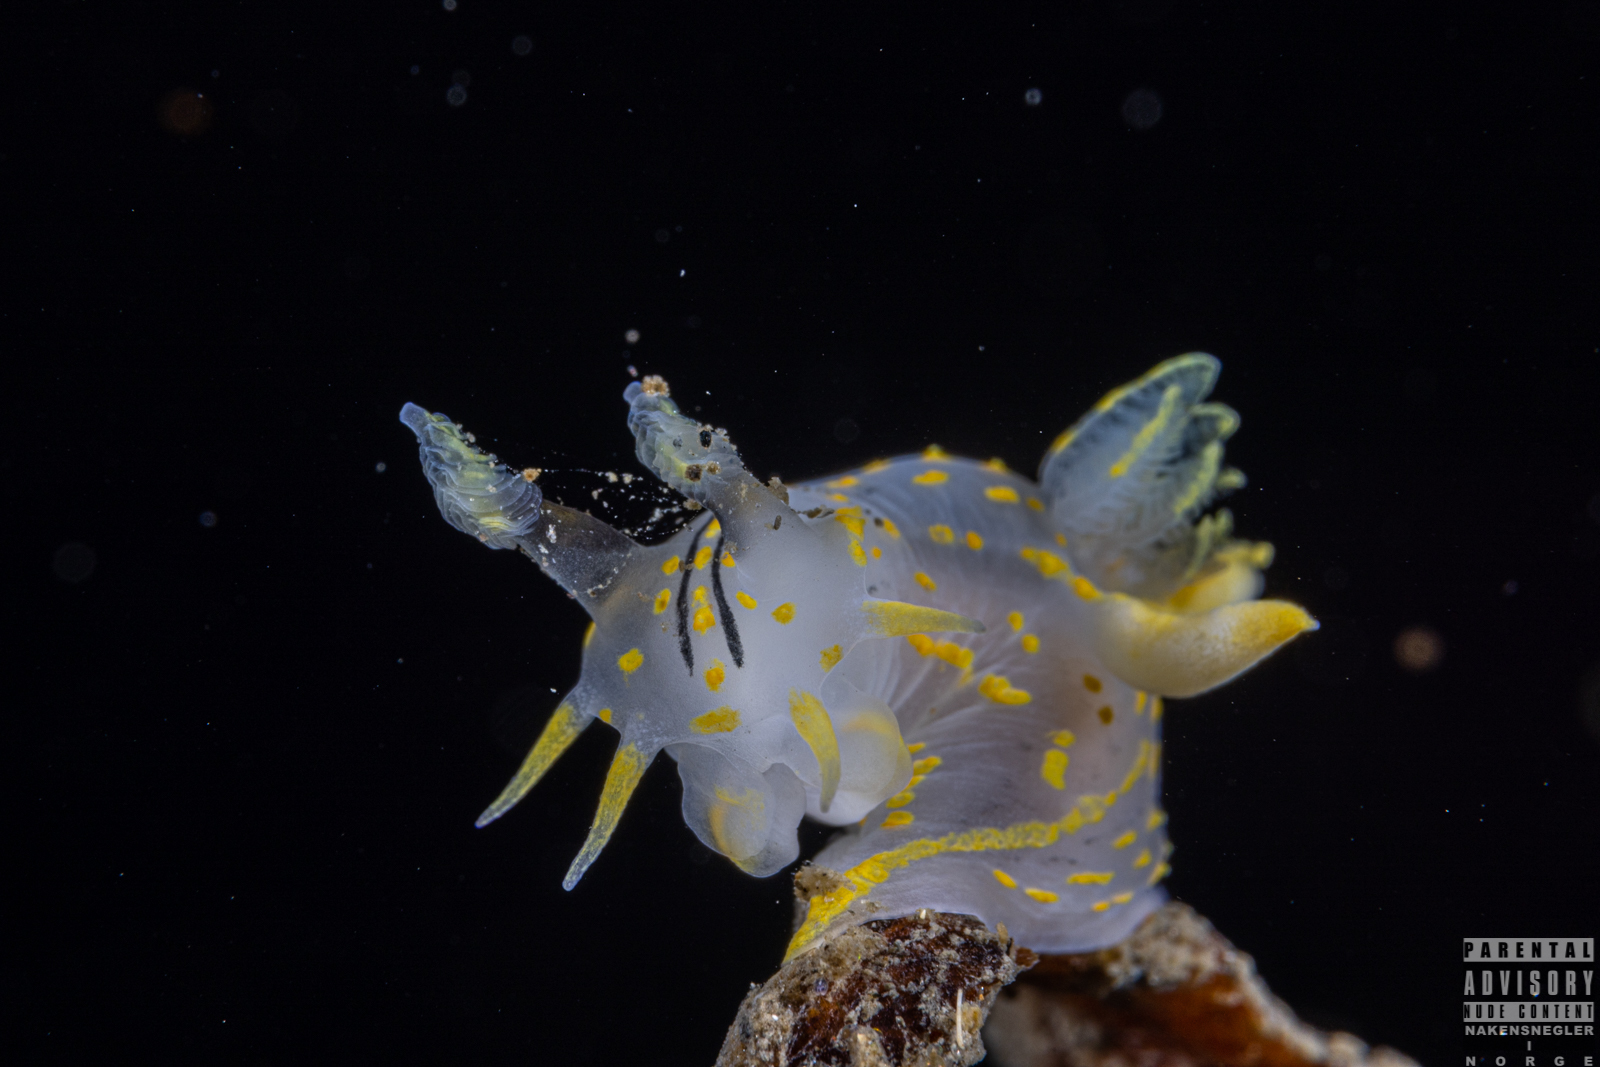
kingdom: Animalia
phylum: Mollusca
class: Gastropoda
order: Nudibranchia
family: Polyceridae
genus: Polycera
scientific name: Polycera quadrilineata
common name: Four-striped polycera
